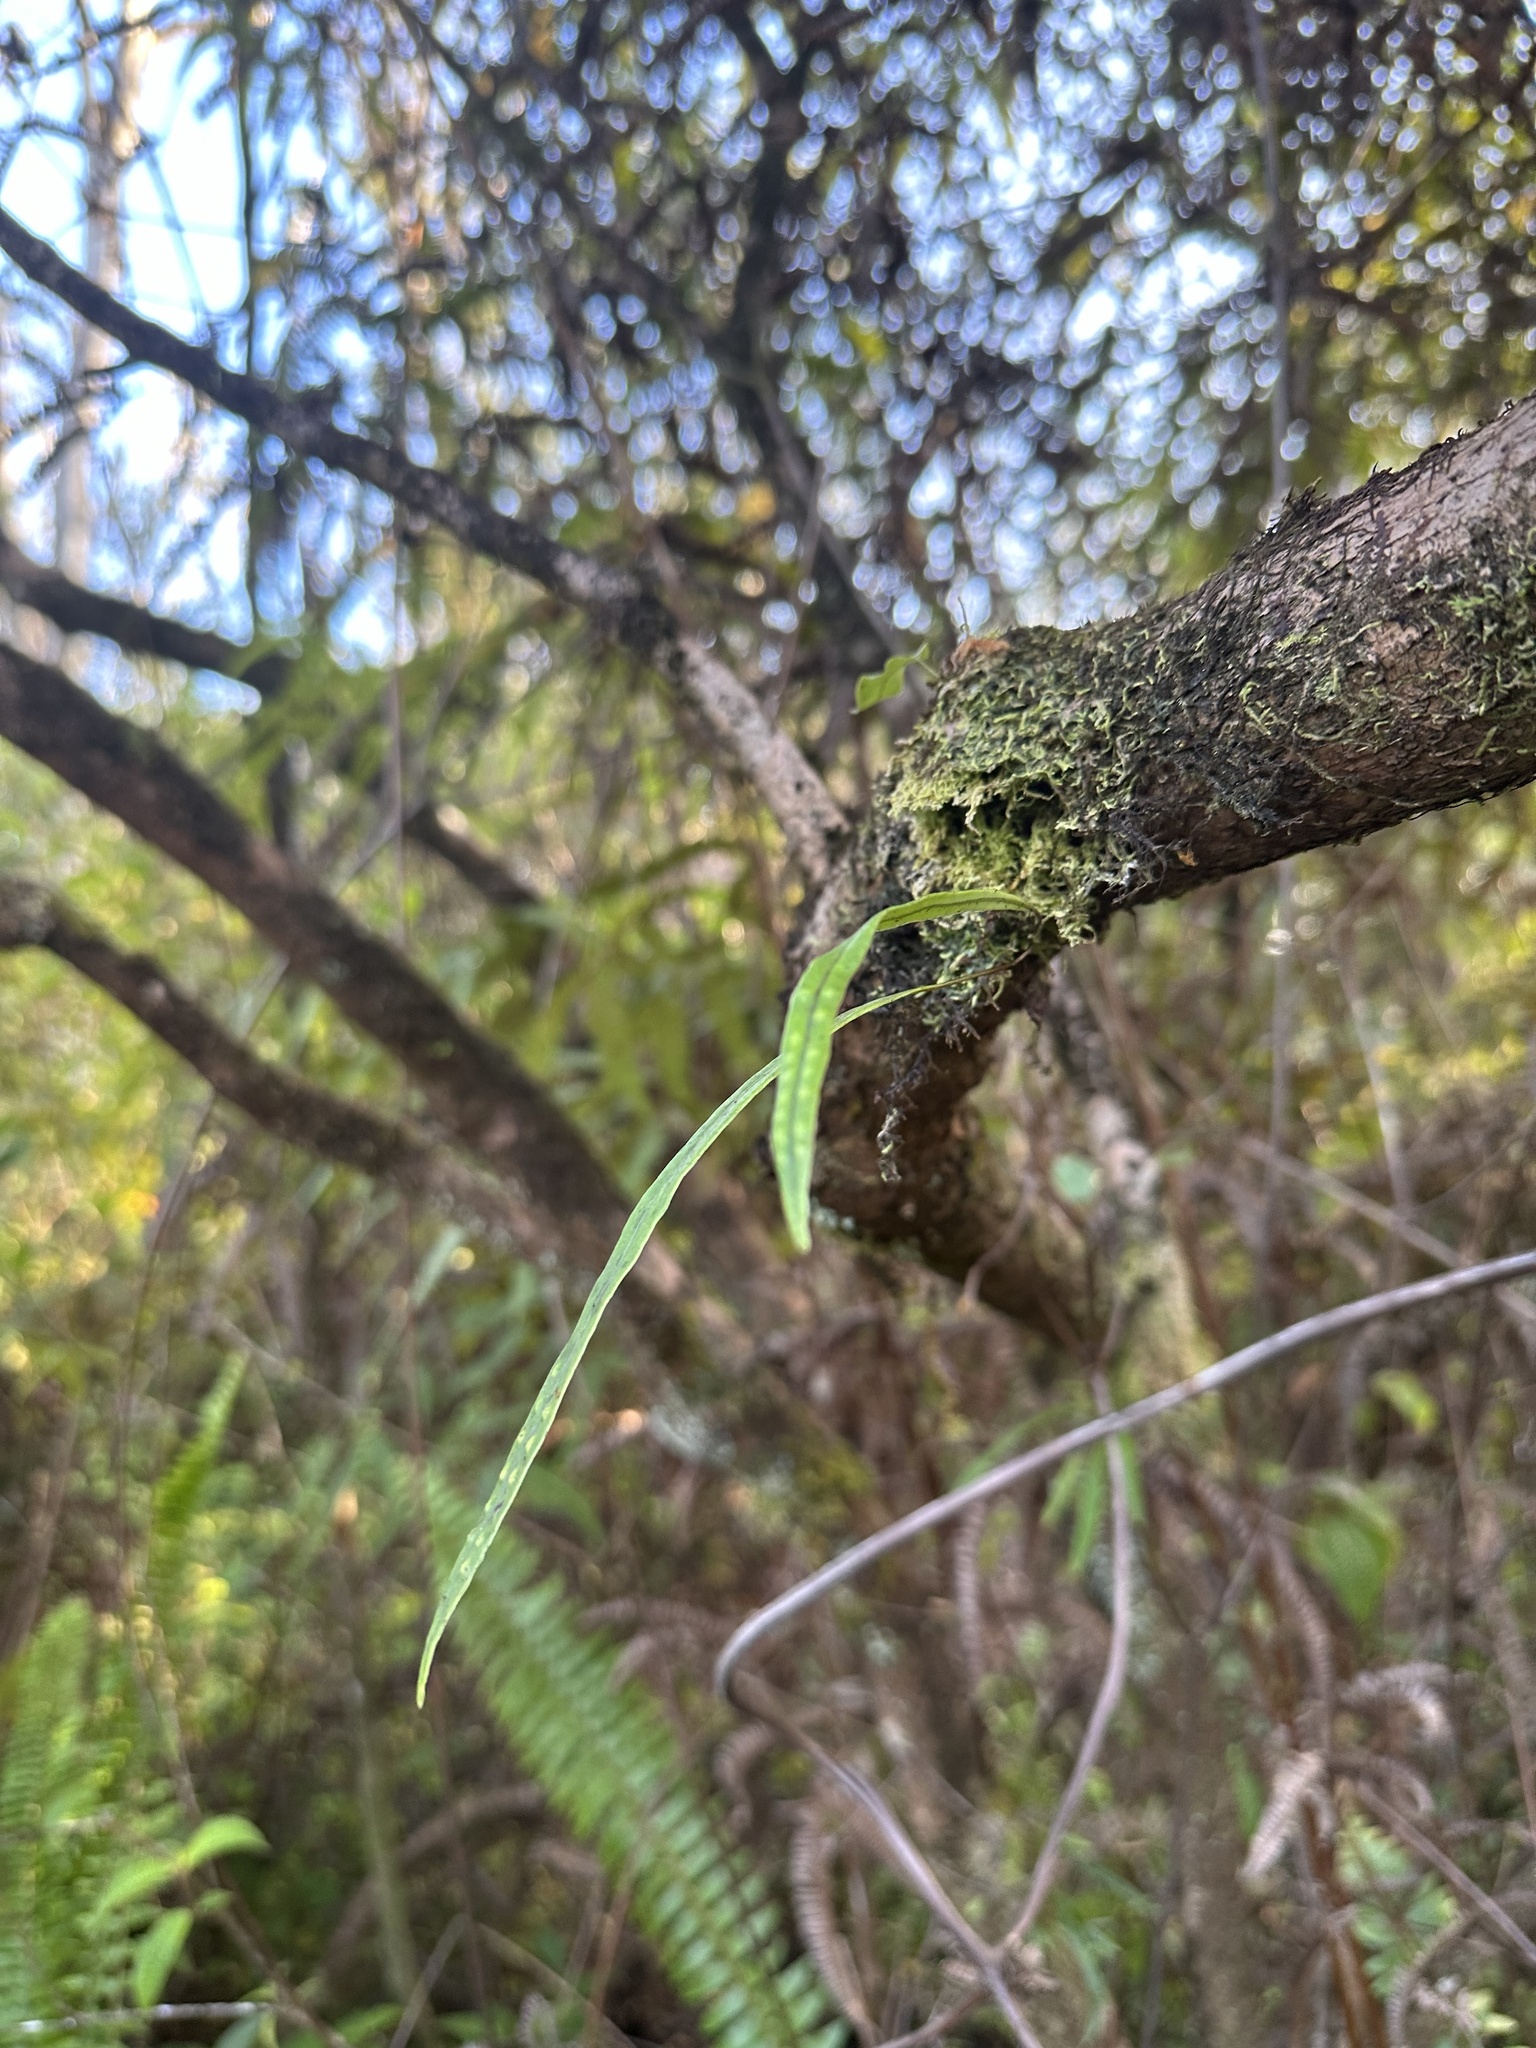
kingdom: Plantae
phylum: Tracheophyta
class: Polypodiopsida
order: Polypodiales
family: Polypodiaceae
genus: Lepisorus
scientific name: Lepisorus thunbergianus
